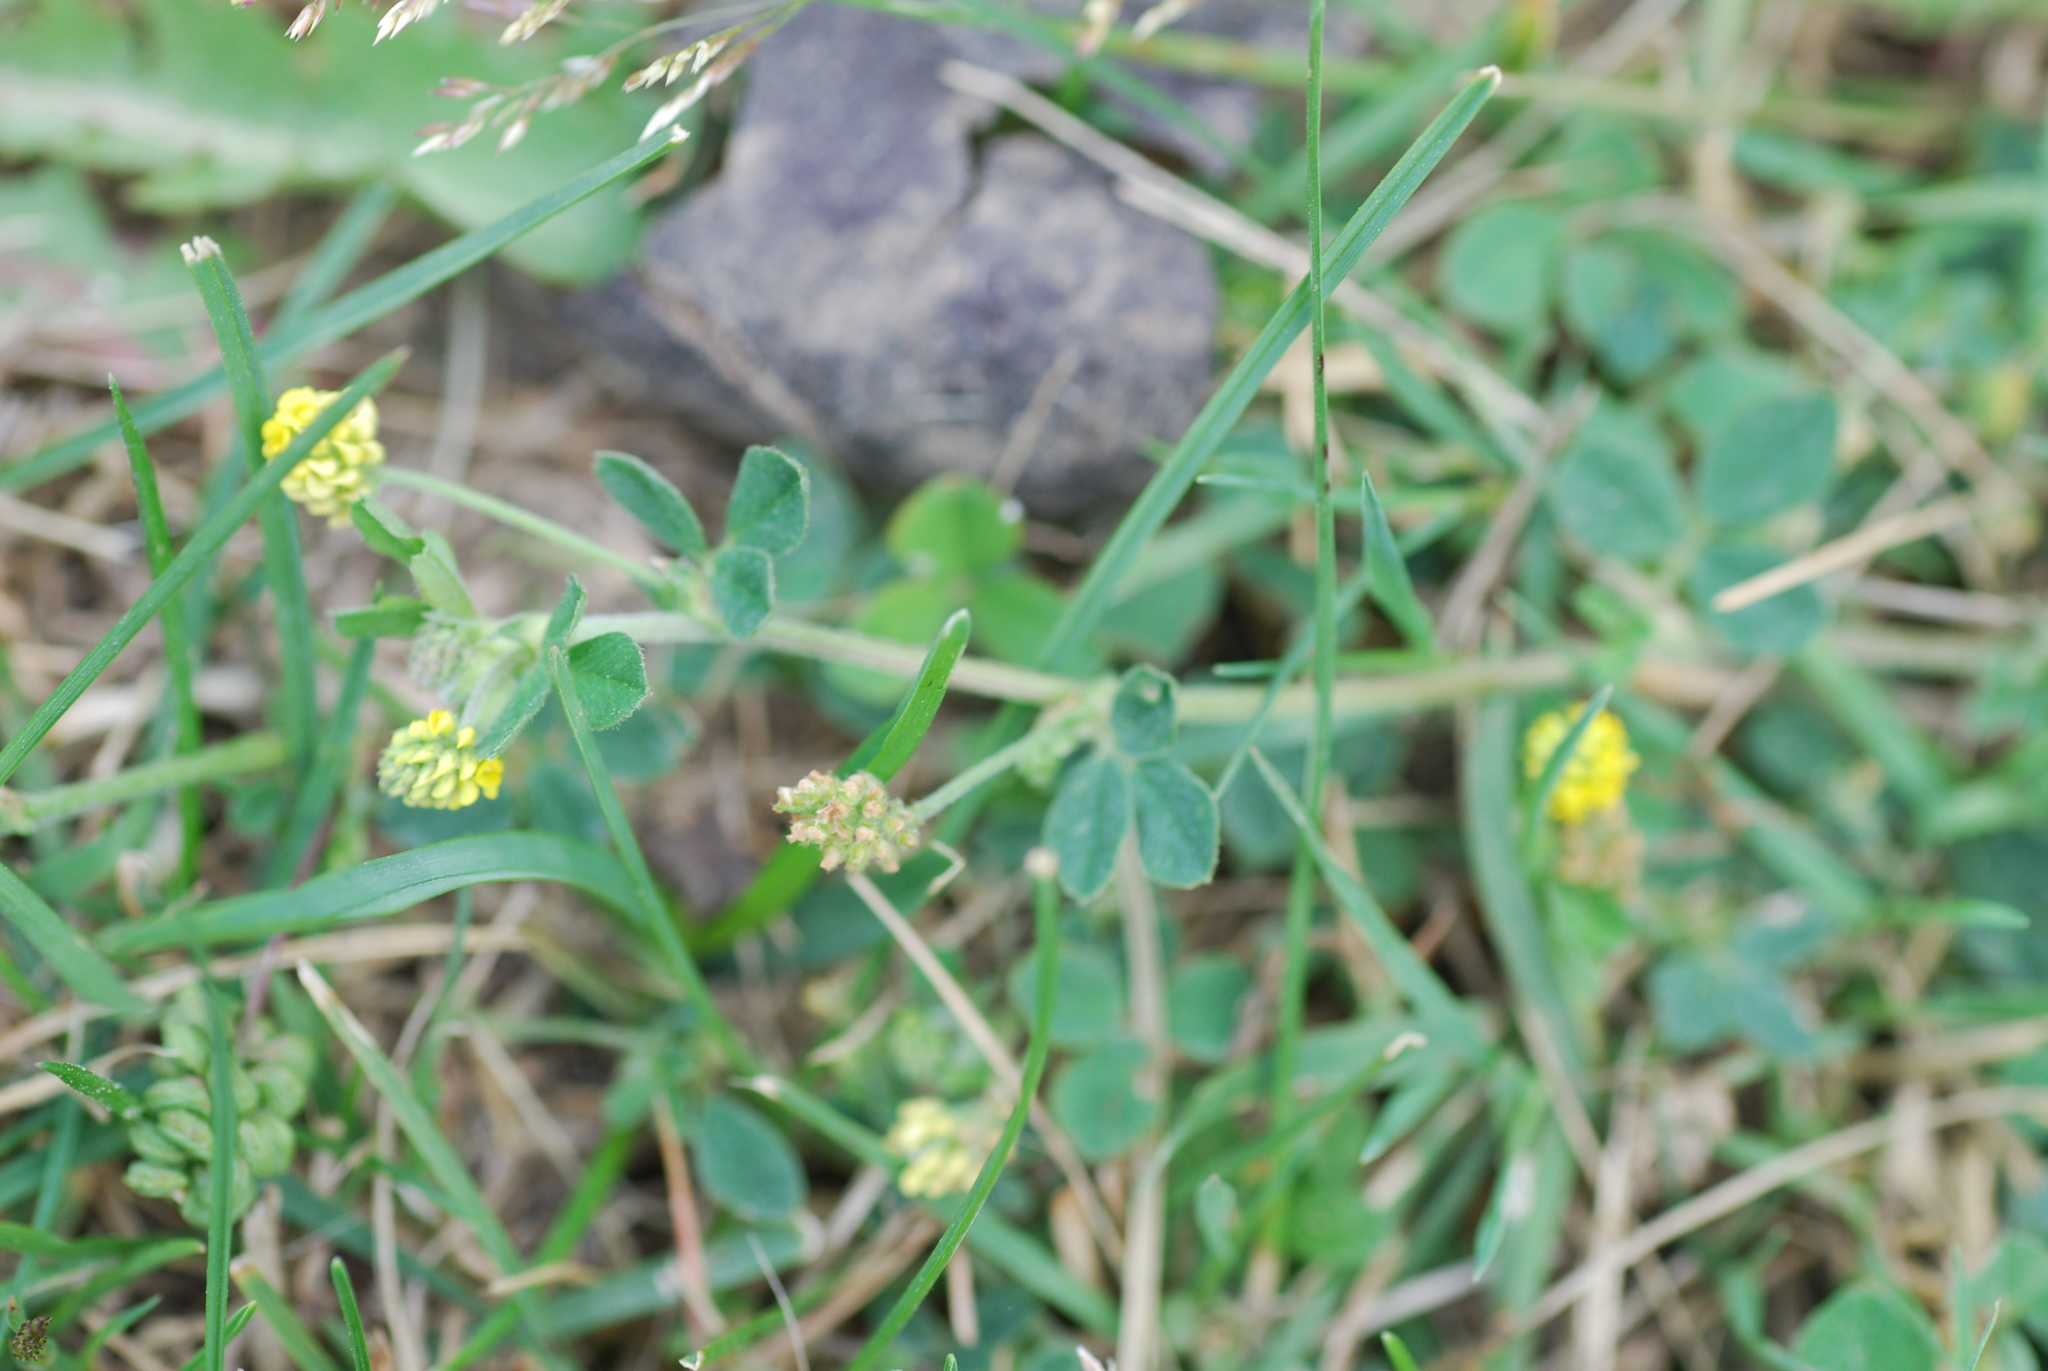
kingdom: Plantae
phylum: Tracheophyta
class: Magnoliopsida
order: Fabales
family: Fabaceae
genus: Medicago
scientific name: Medicago lupulina
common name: Black medick
